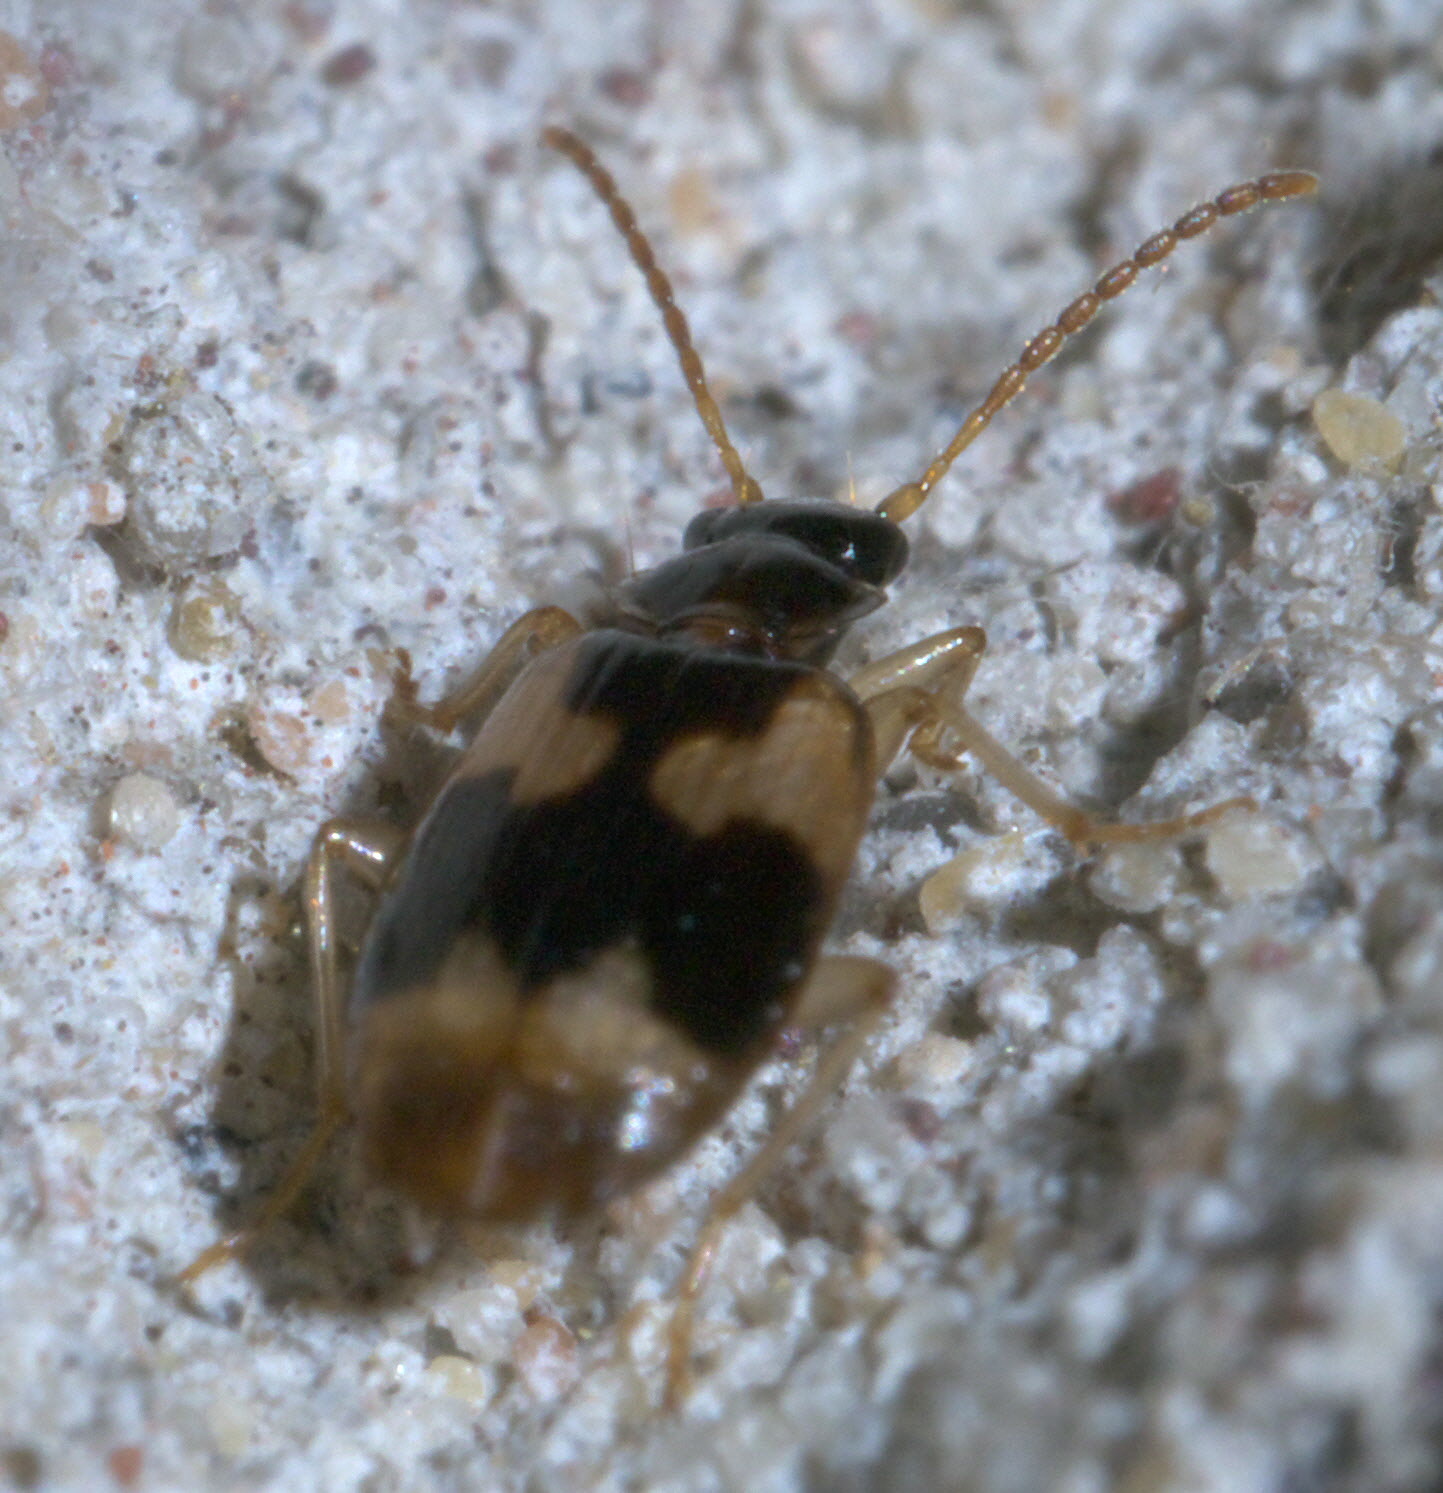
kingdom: Animalia
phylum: Arthropoda
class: Insecta
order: Coleoptera
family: Carabidae
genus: Lebia
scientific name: Lebia lobulata
